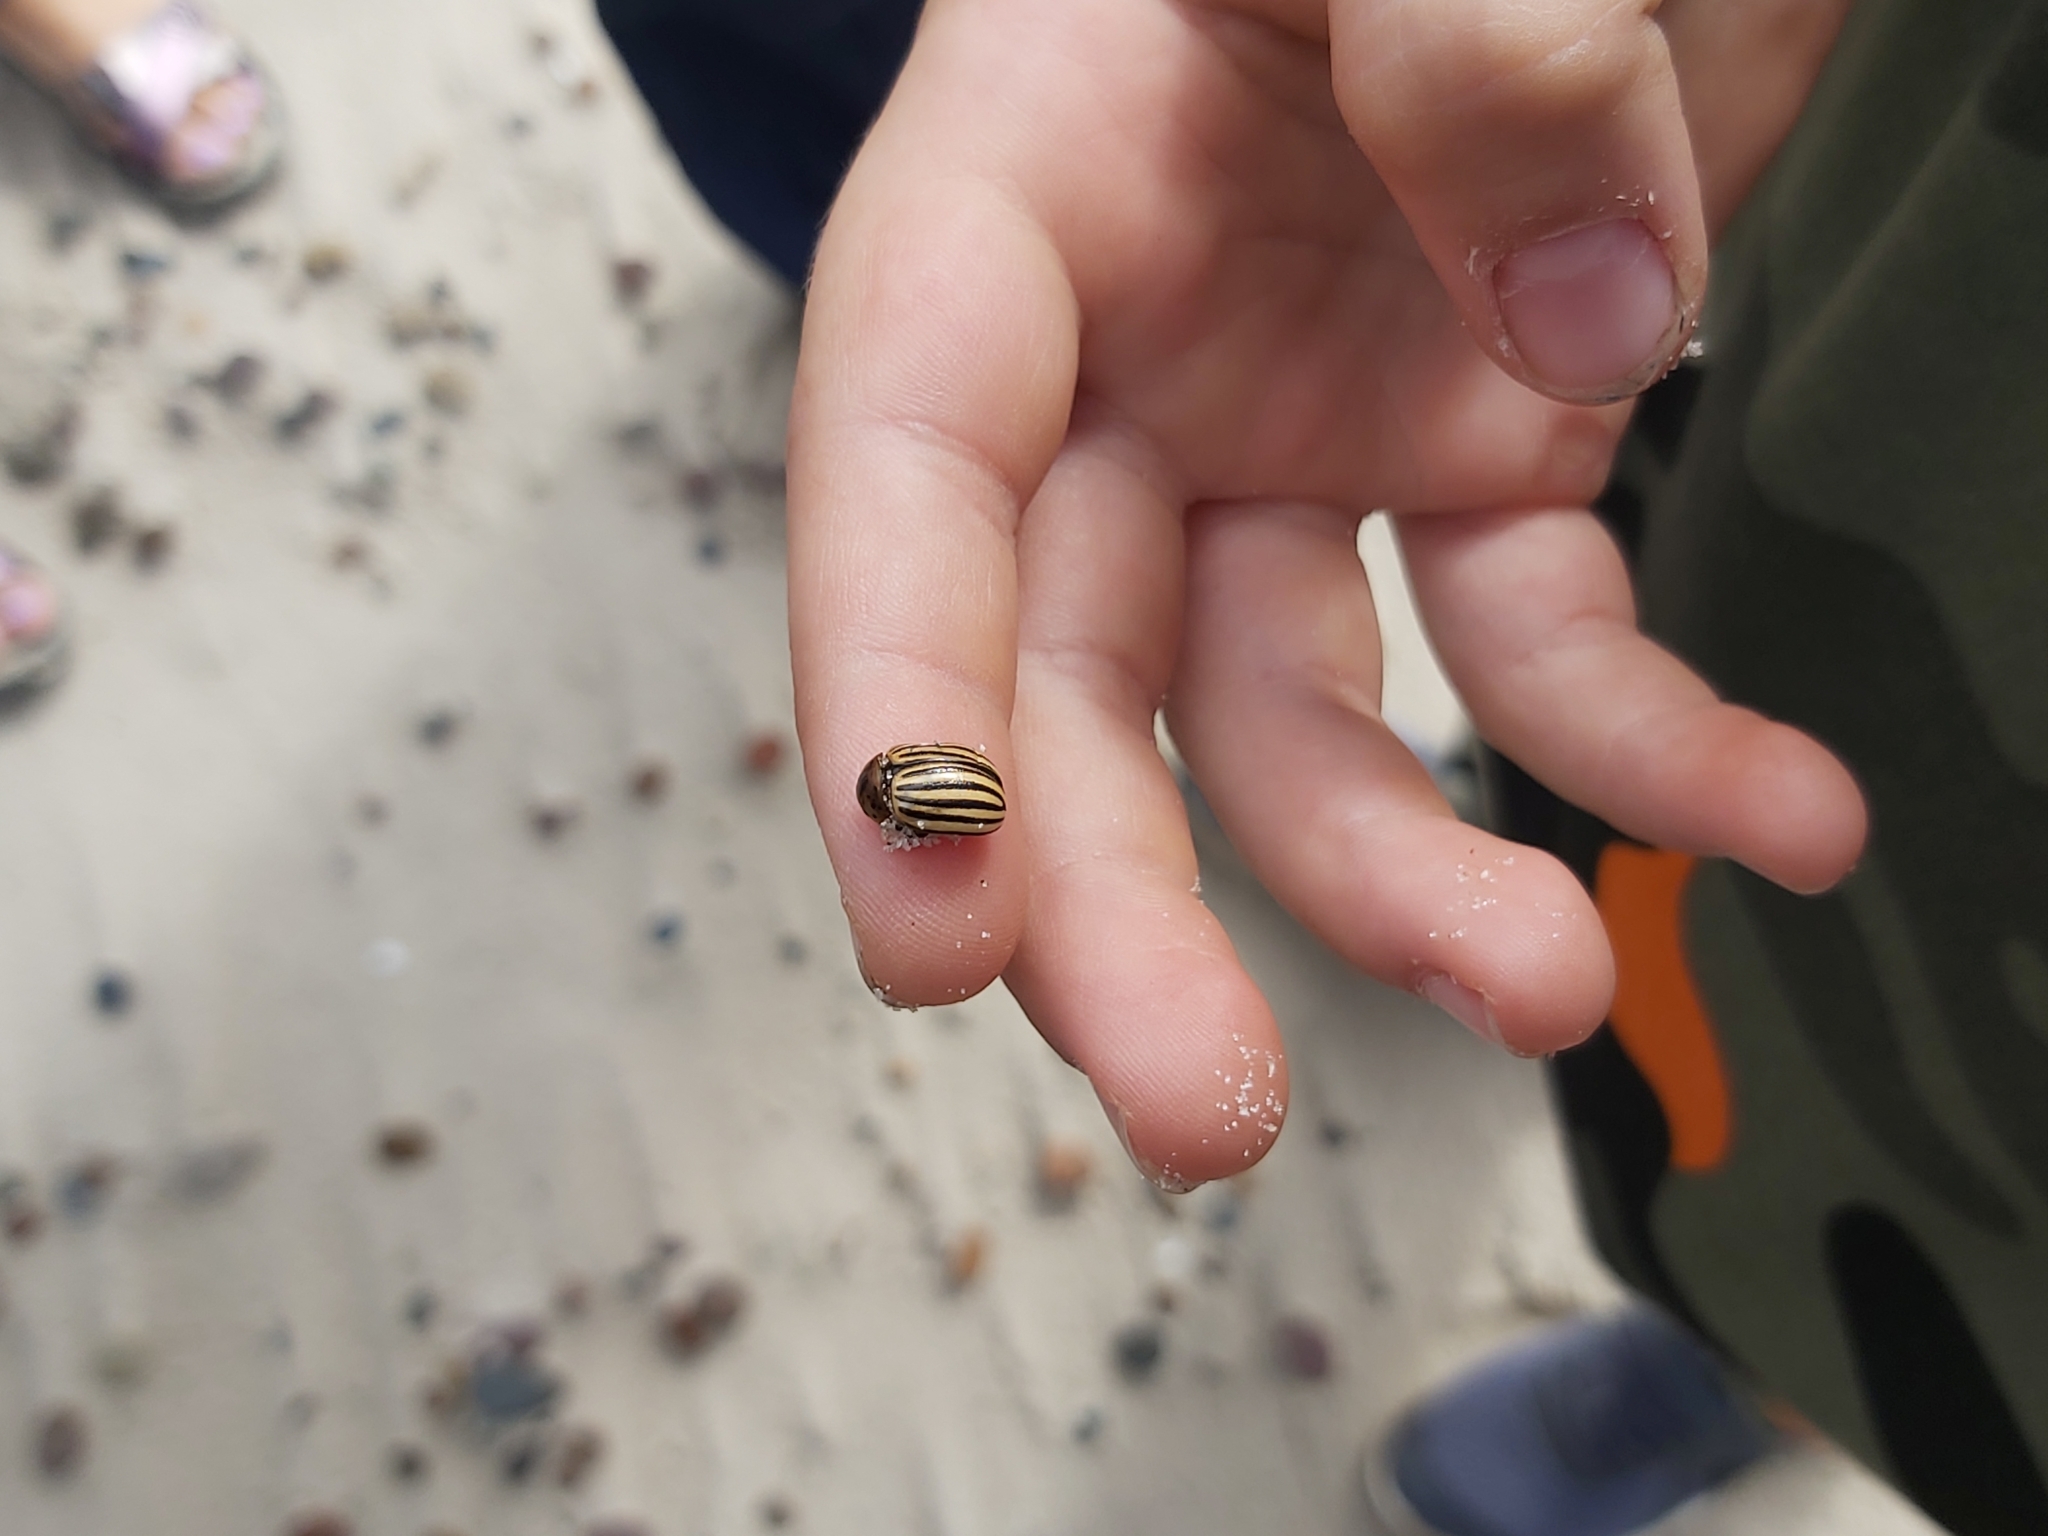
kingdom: Animalia
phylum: Arthropoda
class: Insecta
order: Coleoptera
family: Chrysomelidae
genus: Leptinotarsa
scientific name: Leptinotarsa decemlineata
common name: Colorado potato beetle
